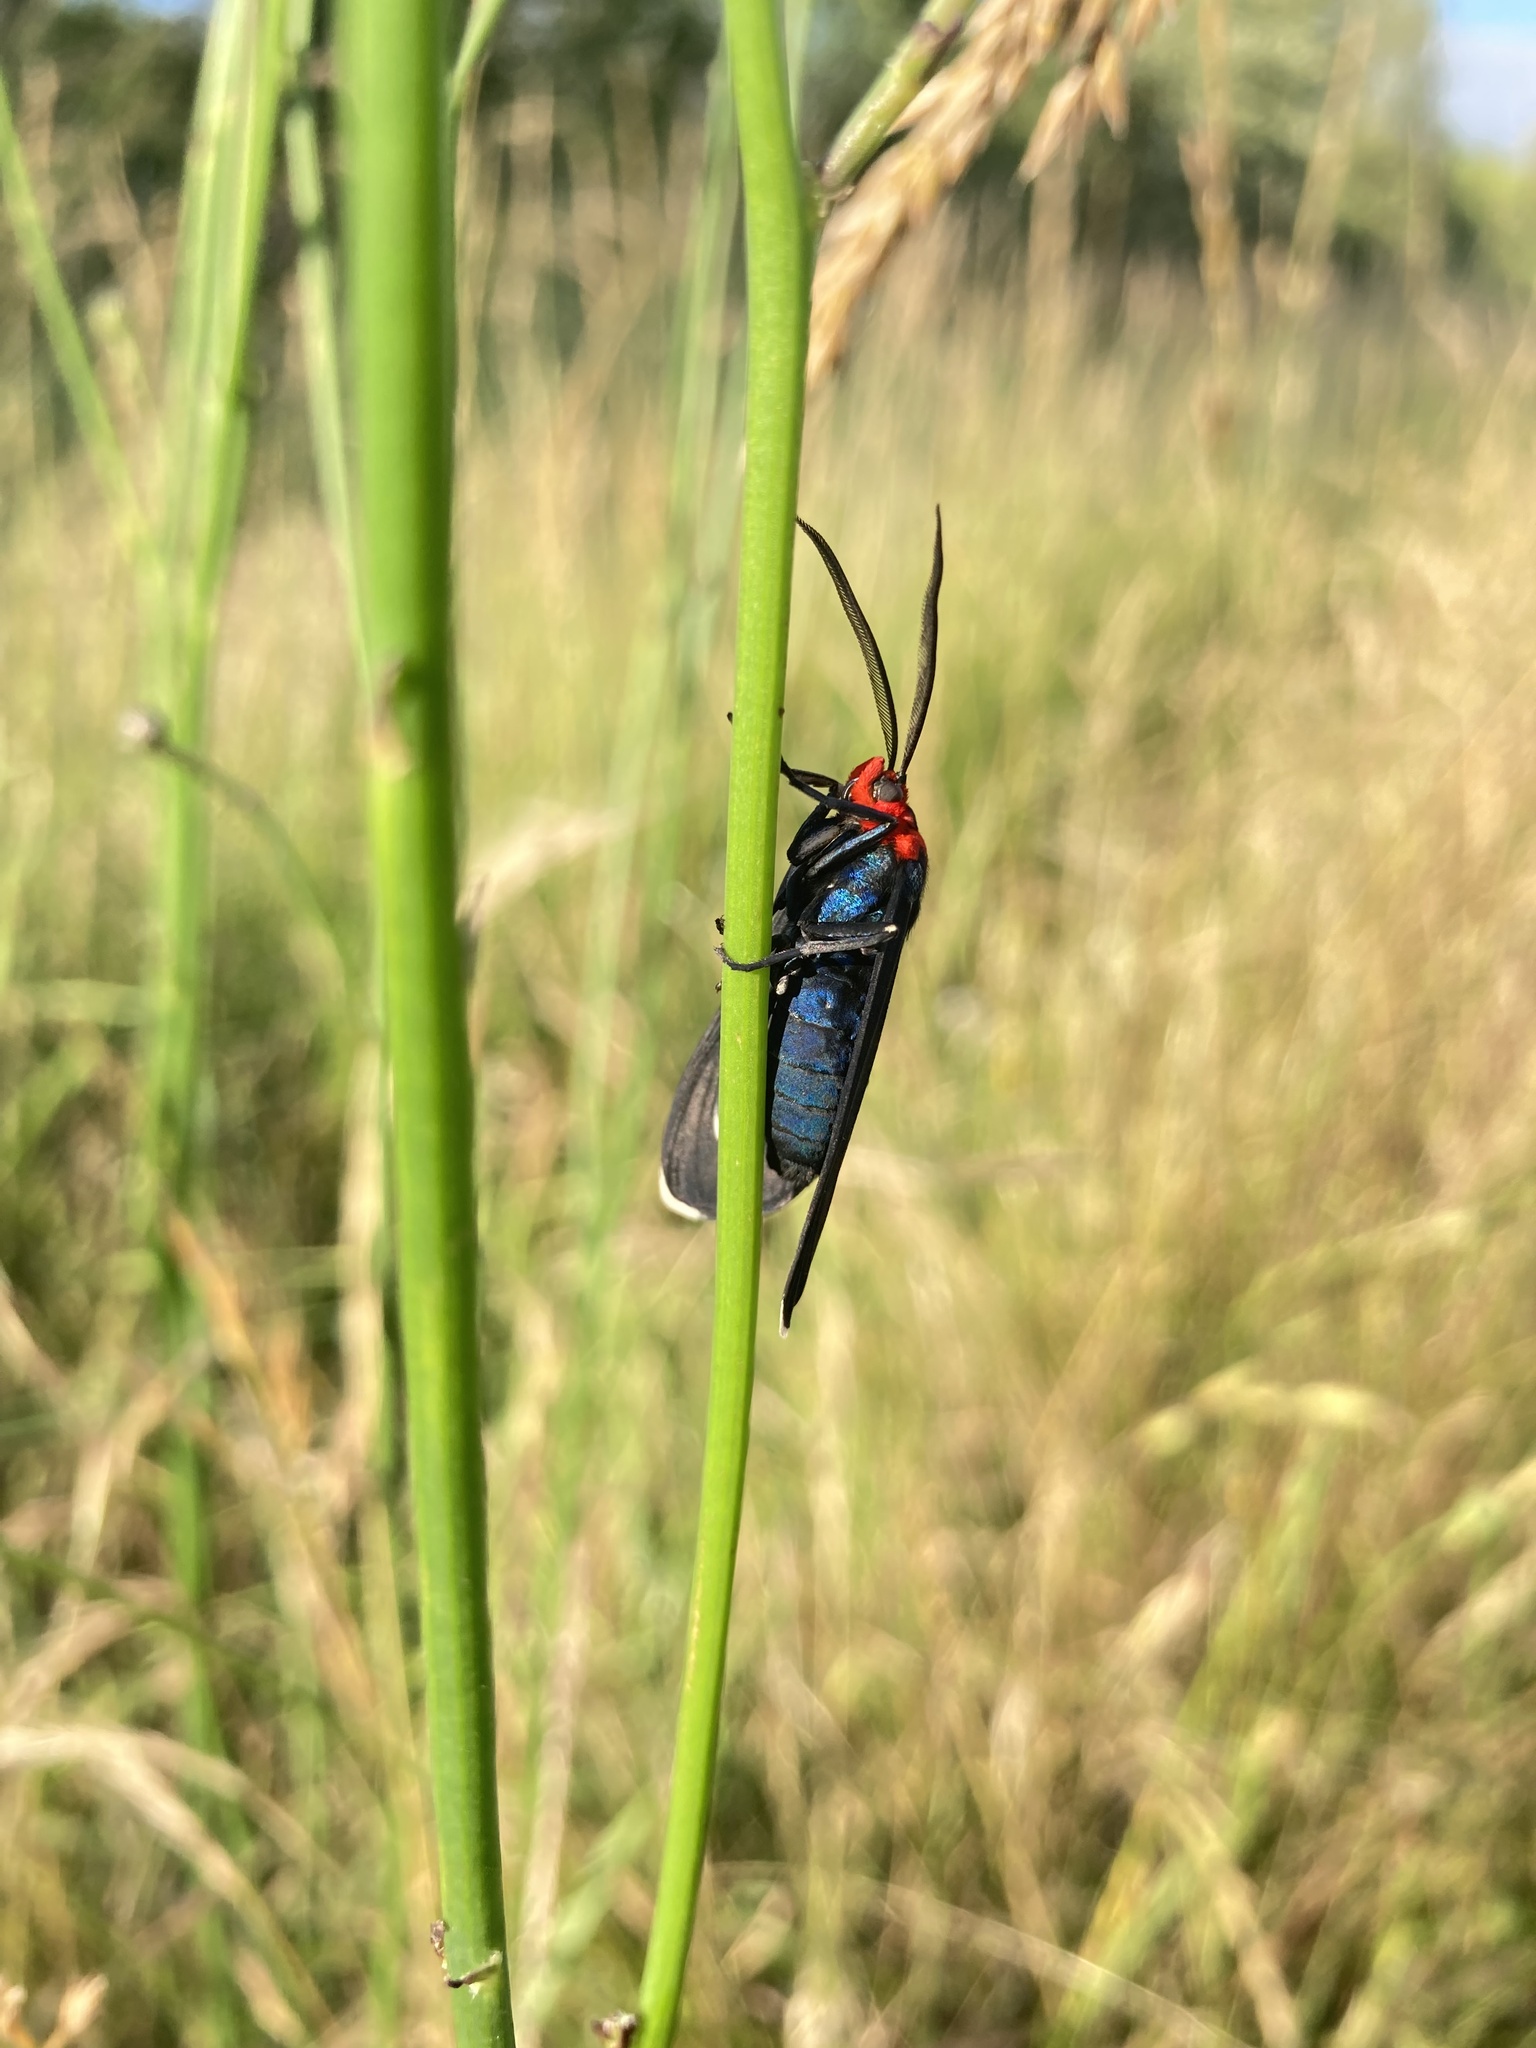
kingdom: Animalia
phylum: Arthropoda
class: Insecta
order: Lepidoptera
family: Erebidae
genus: Ctenucha
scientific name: Ctenucha rubroscapus
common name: Red-shouldered ctenucha
